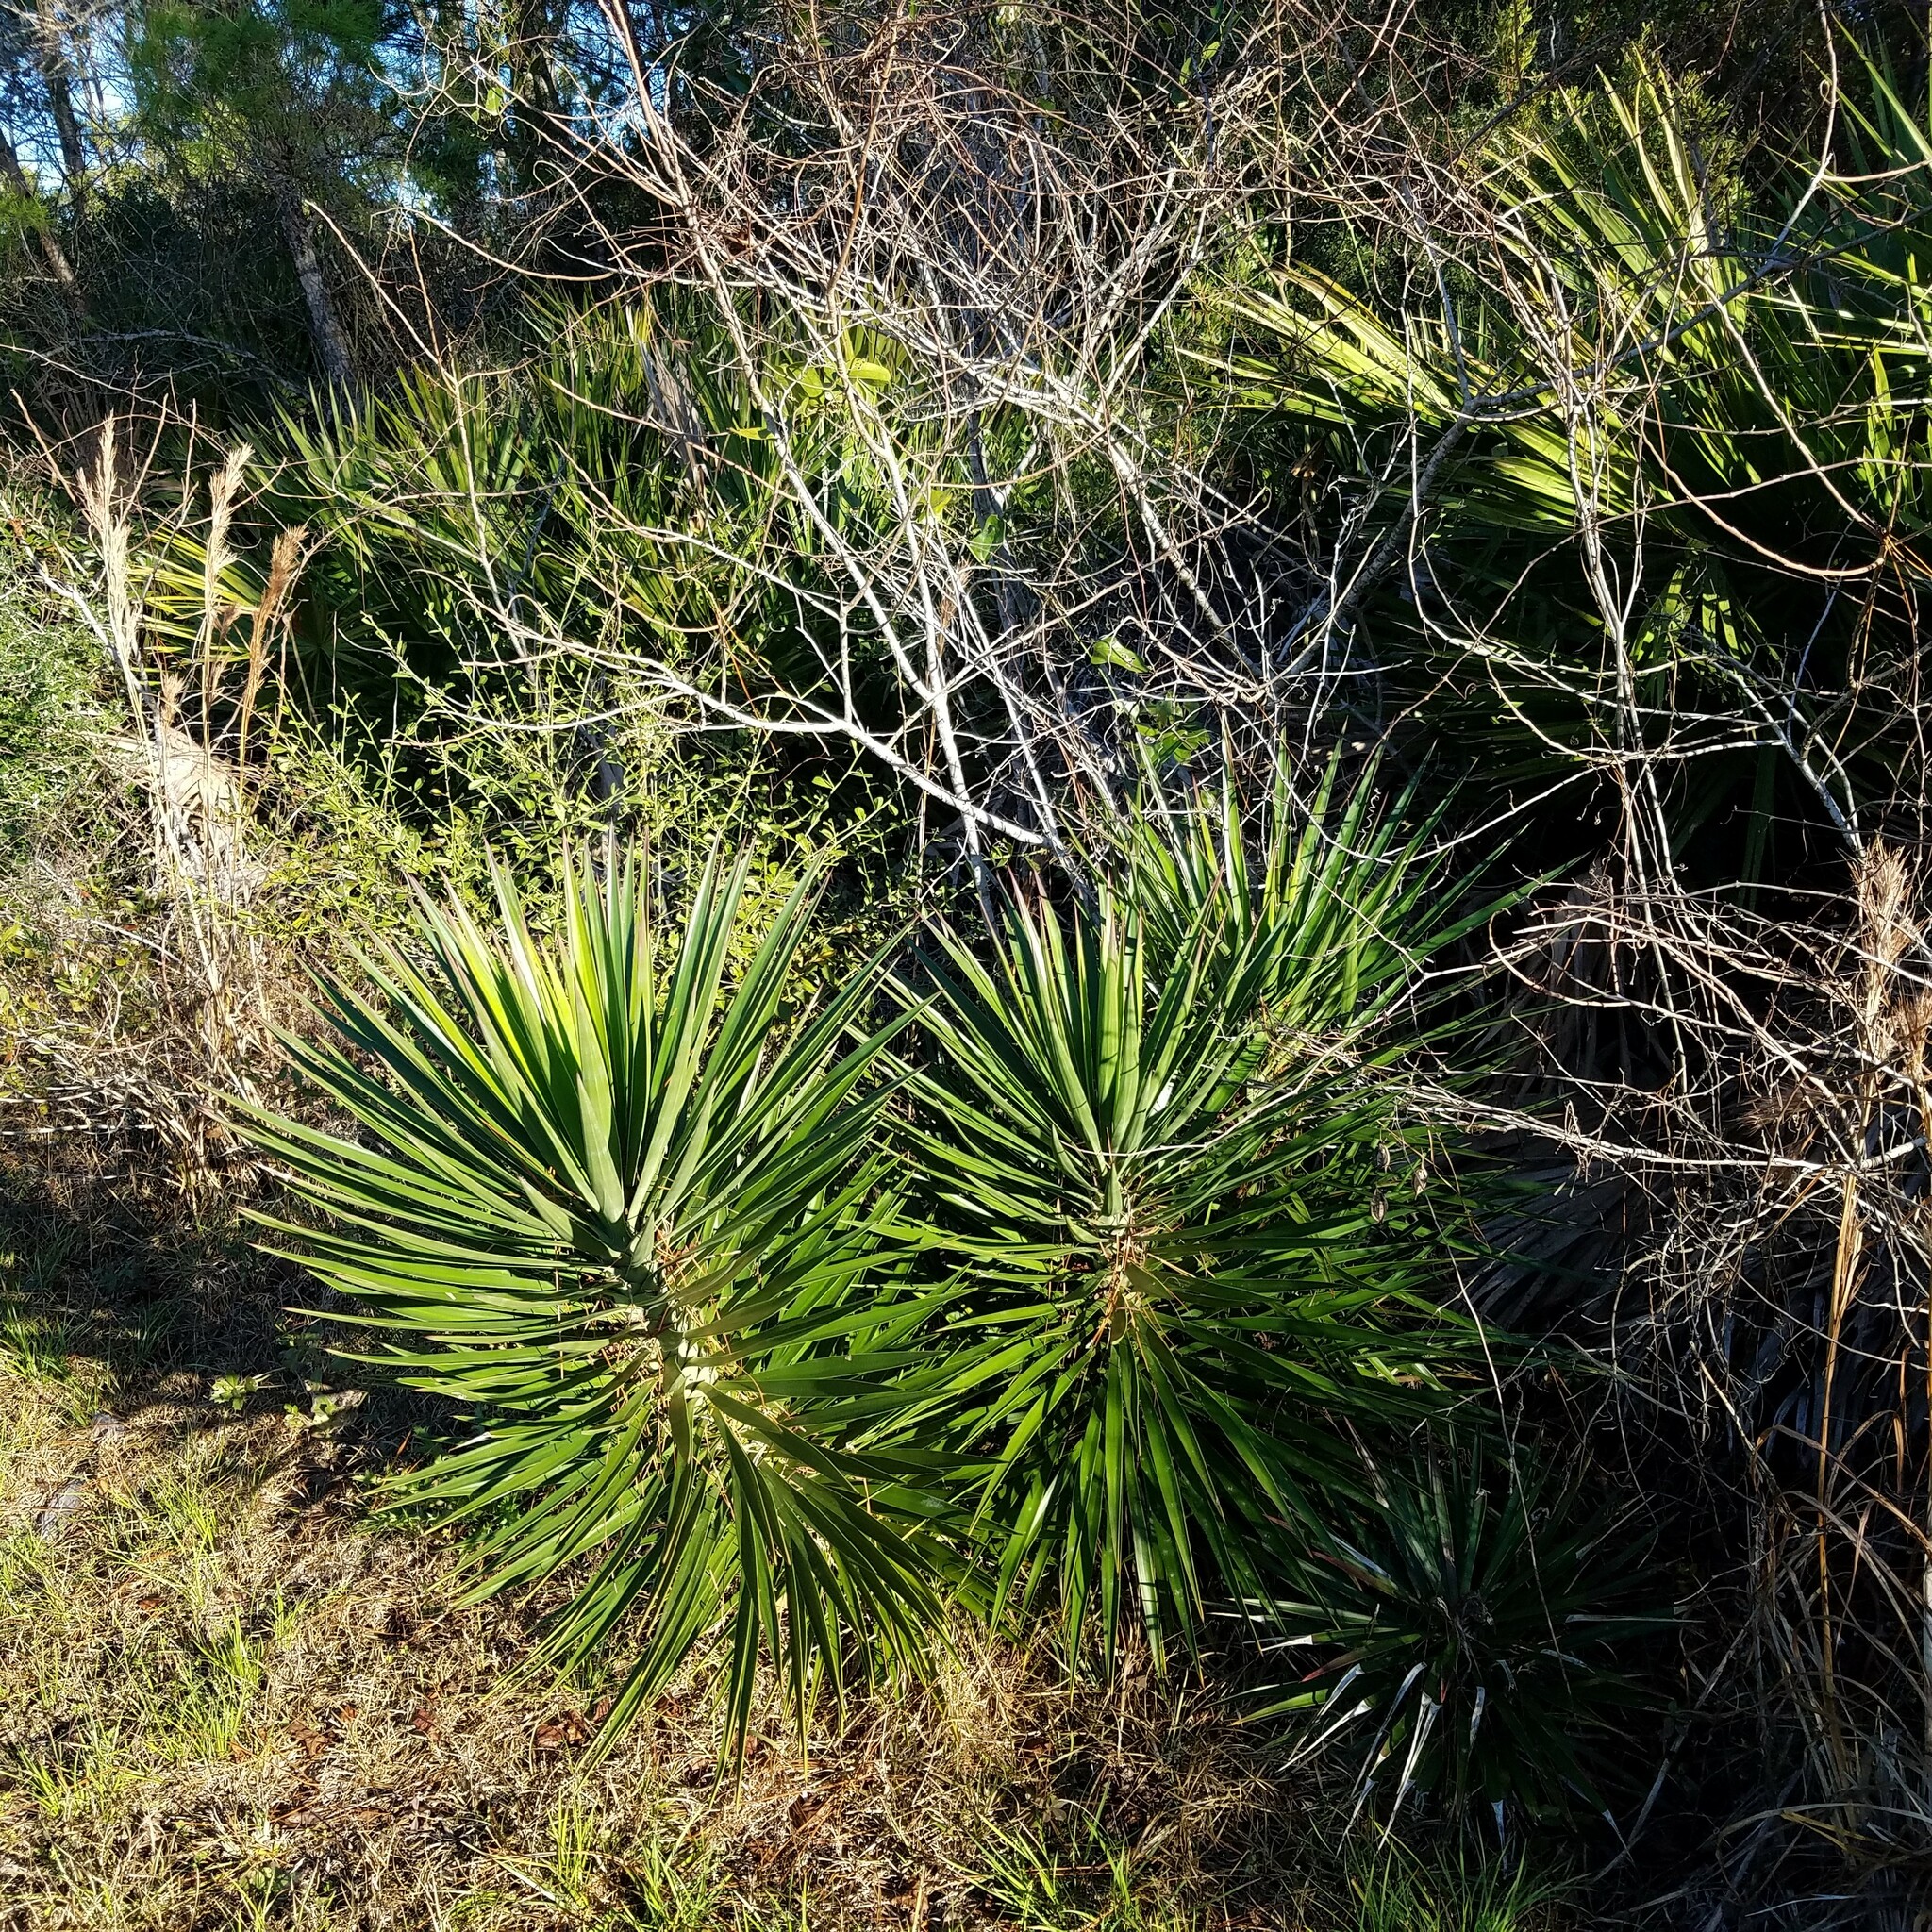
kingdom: Plantae
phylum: Tracheophyta
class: Liliopsida
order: Asparagales
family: Asparagaceae
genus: Yucca
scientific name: Yucca aloifolia
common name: Aloe yucca
